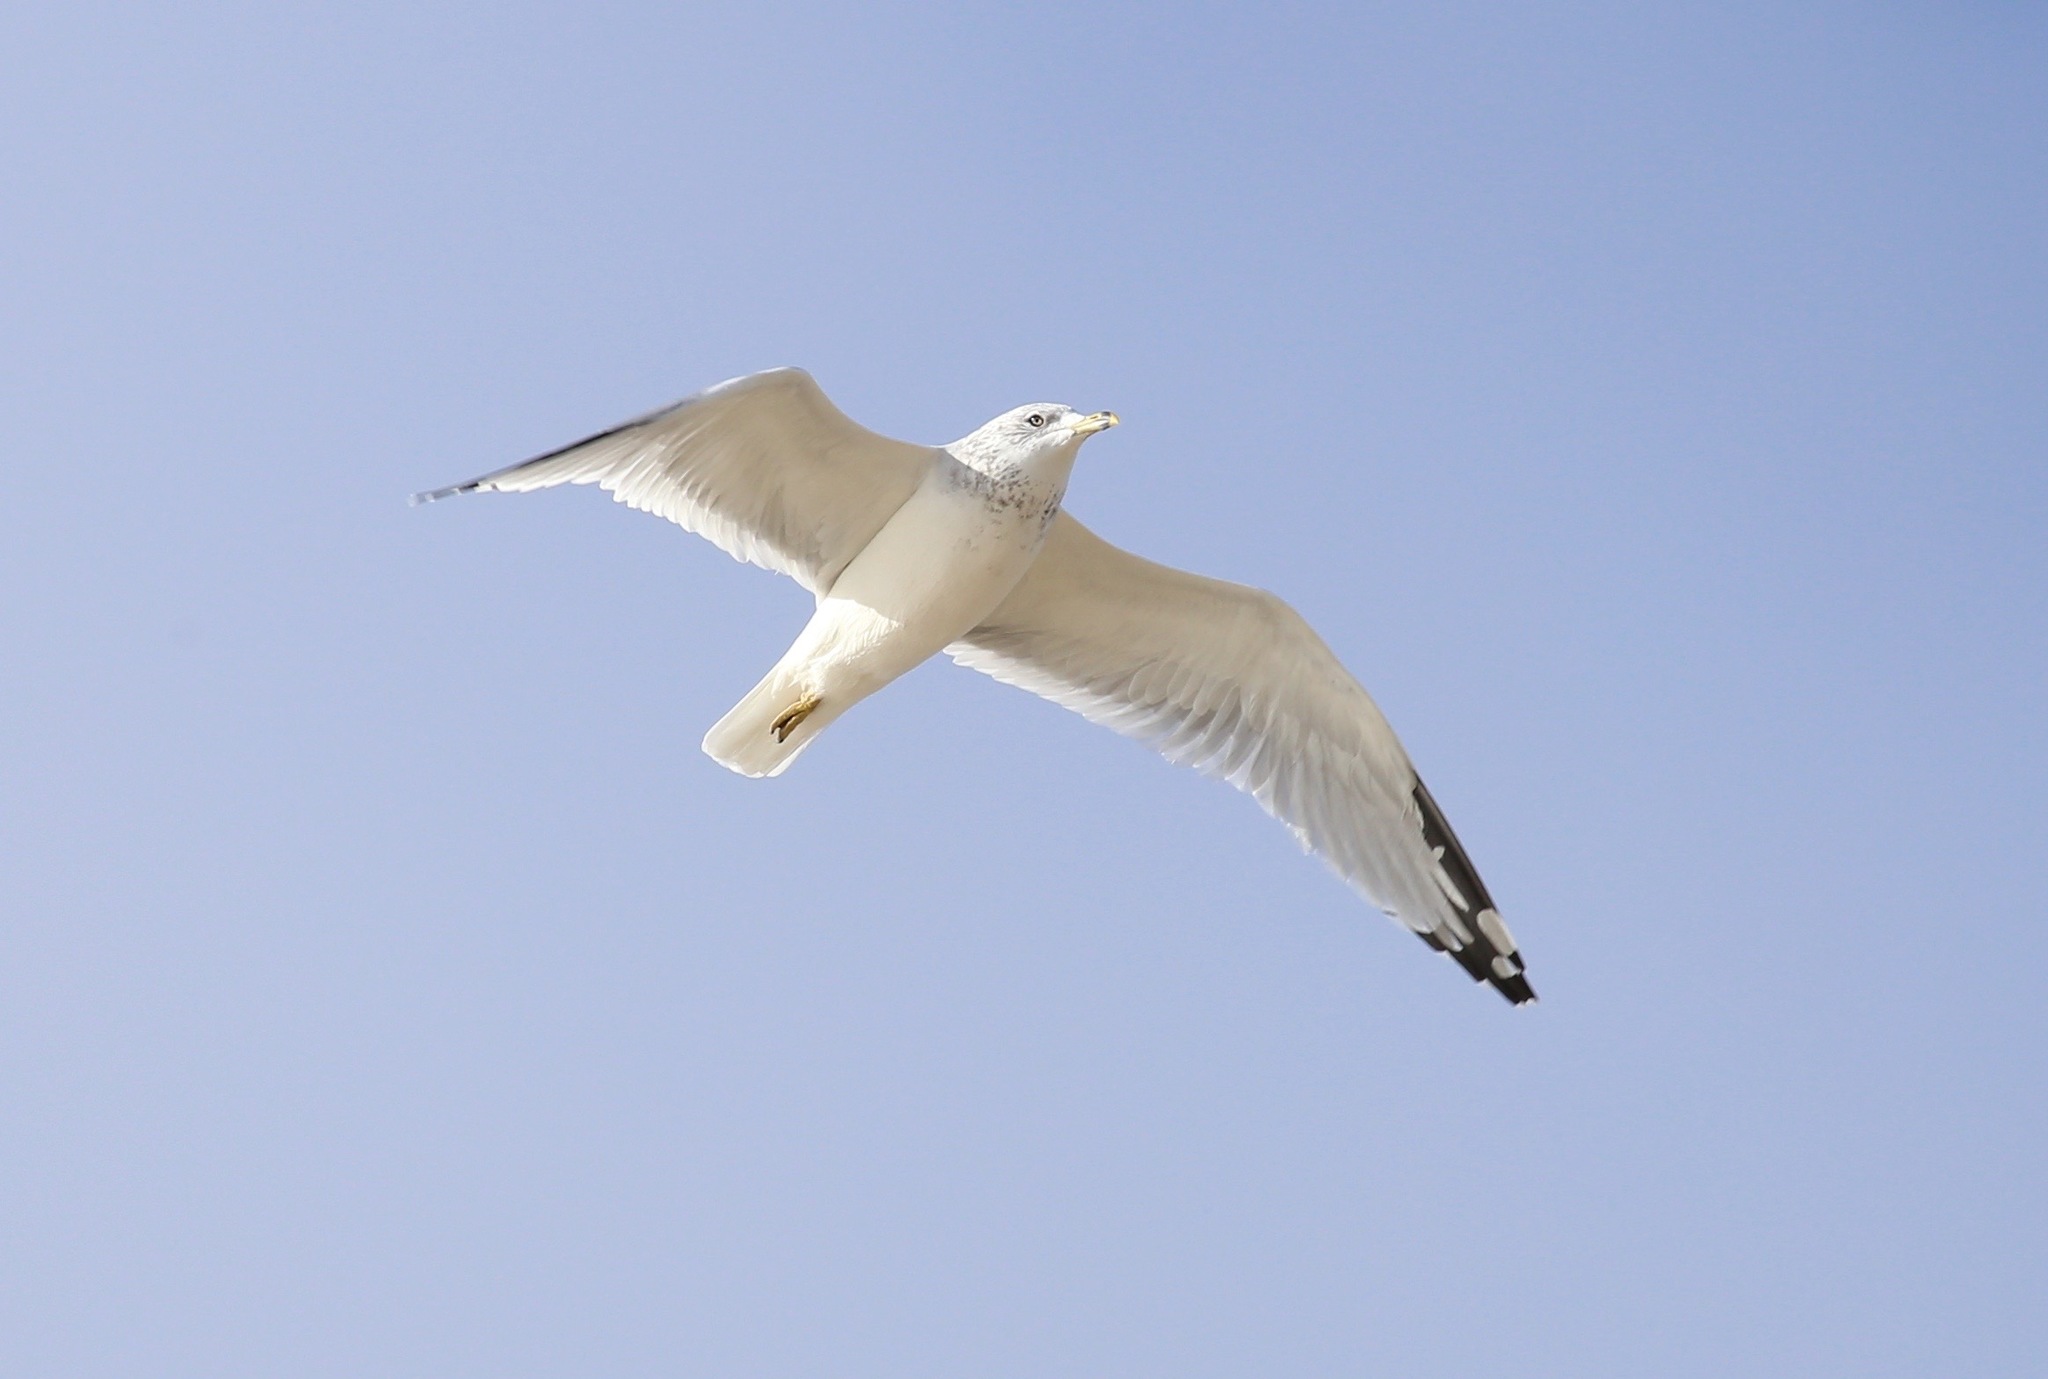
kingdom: Animalia
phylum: Chordata
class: Aves
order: Charadriiformes
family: Laridae
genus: Larus
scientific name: Larus delawarensis
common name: Ring-billed gull
